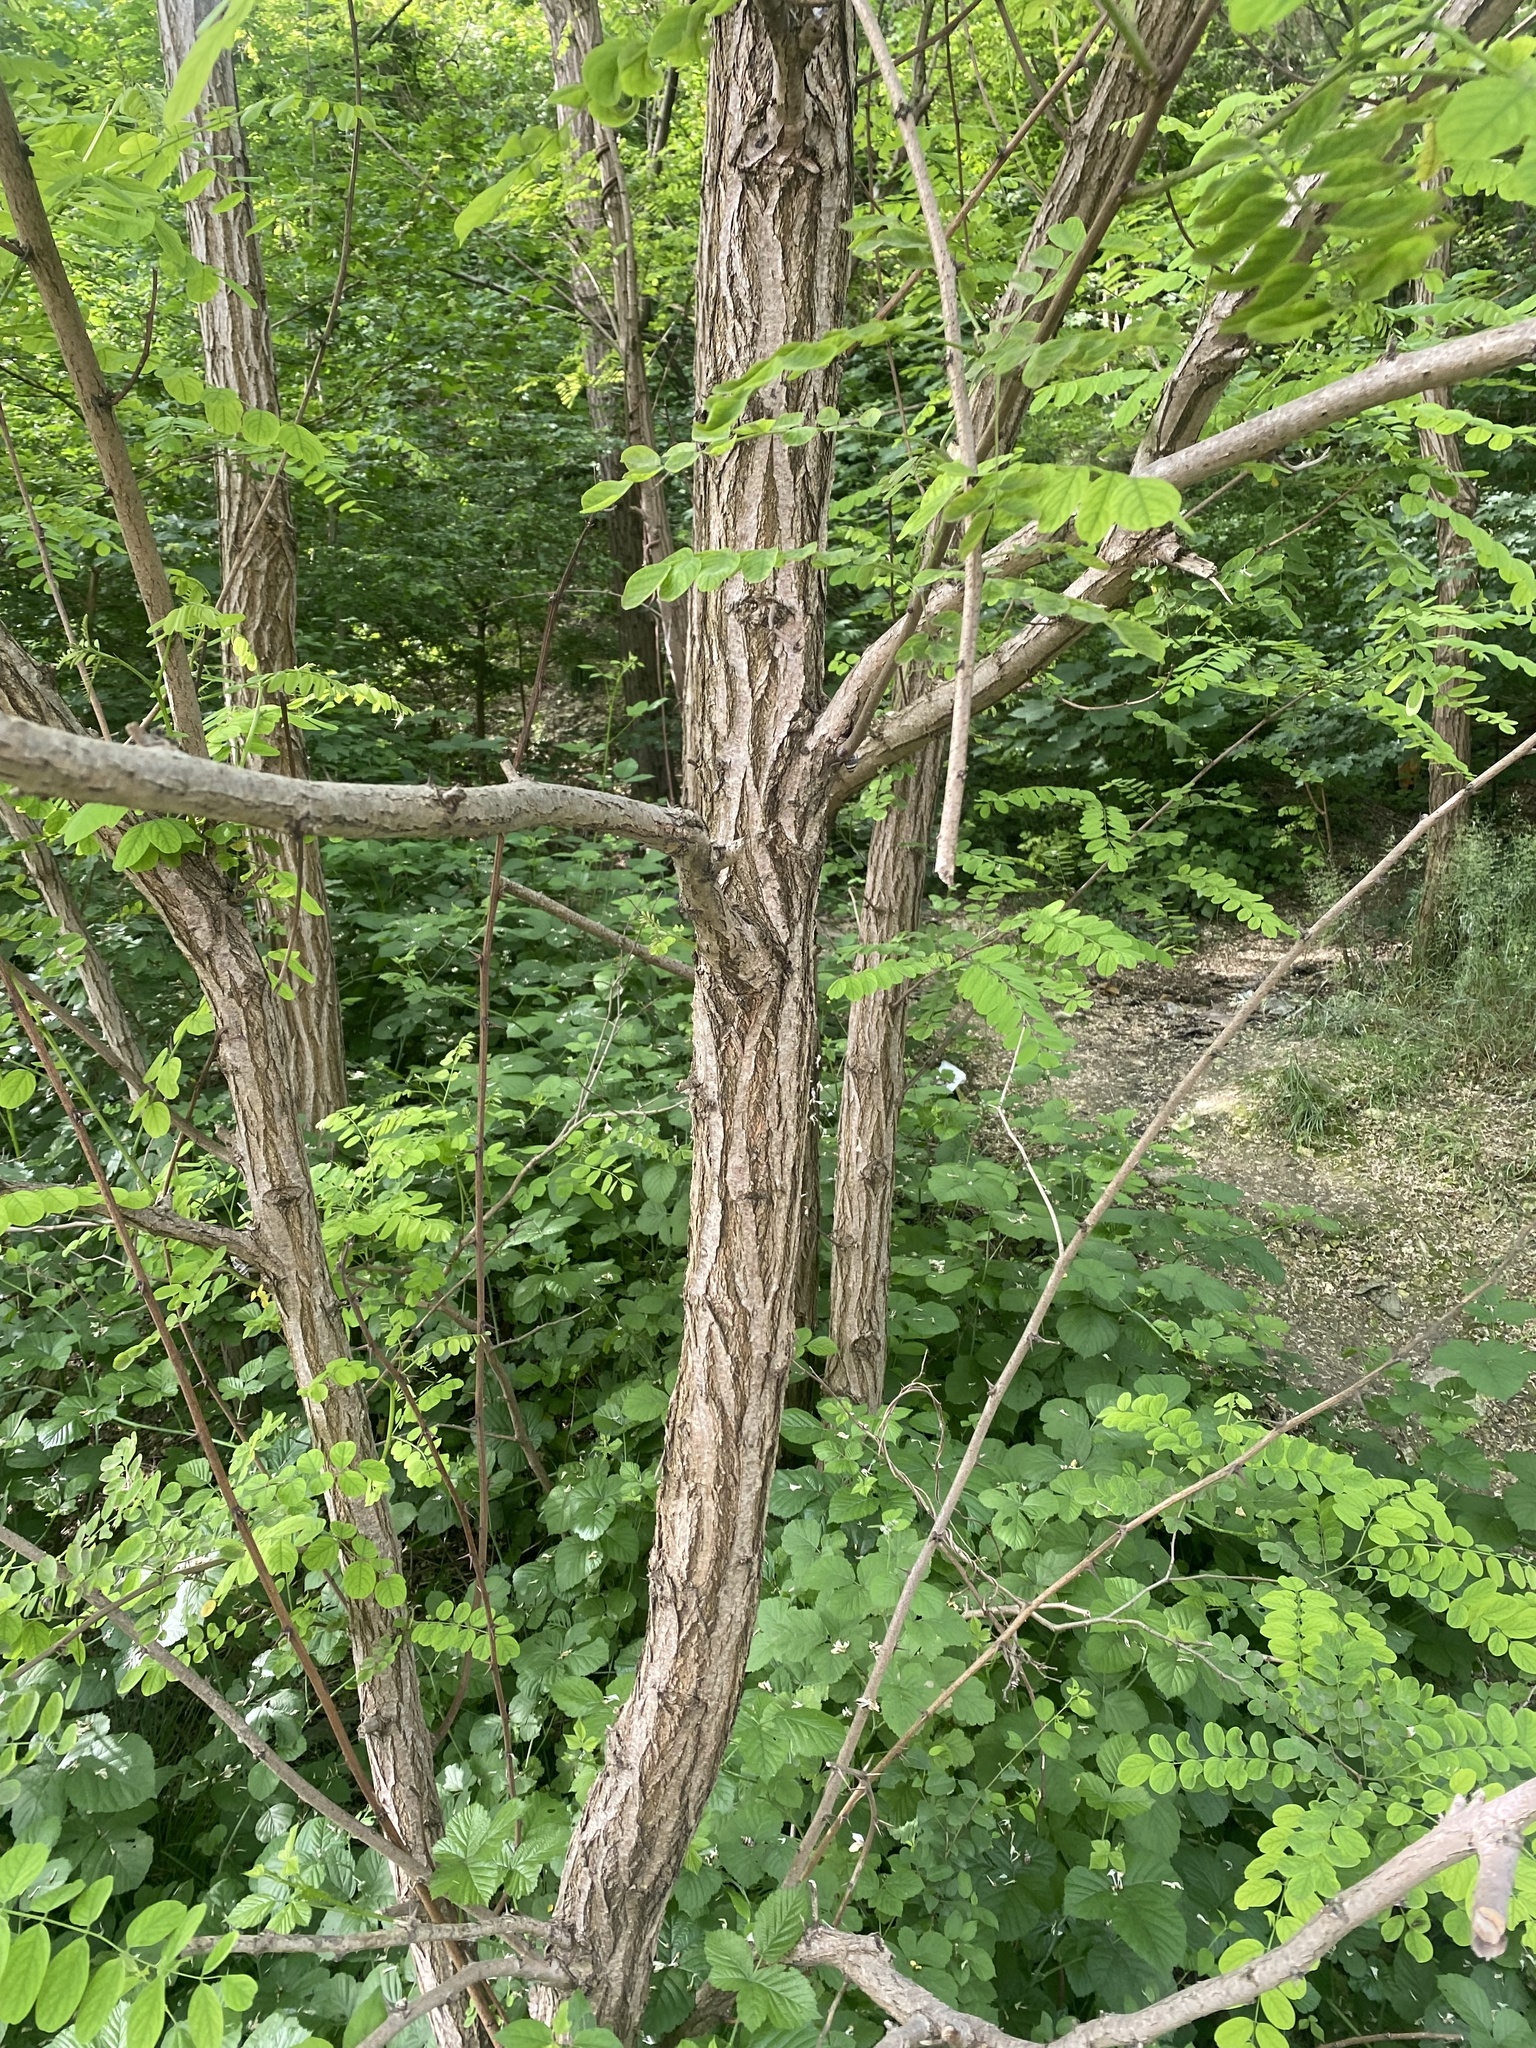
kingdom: Plantae
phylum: Tracheophyta
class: Magnoliopsida
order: Fabales
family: Fabaceae
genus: Robinia
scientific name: Robinia pseudoacacia
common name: Black locust
